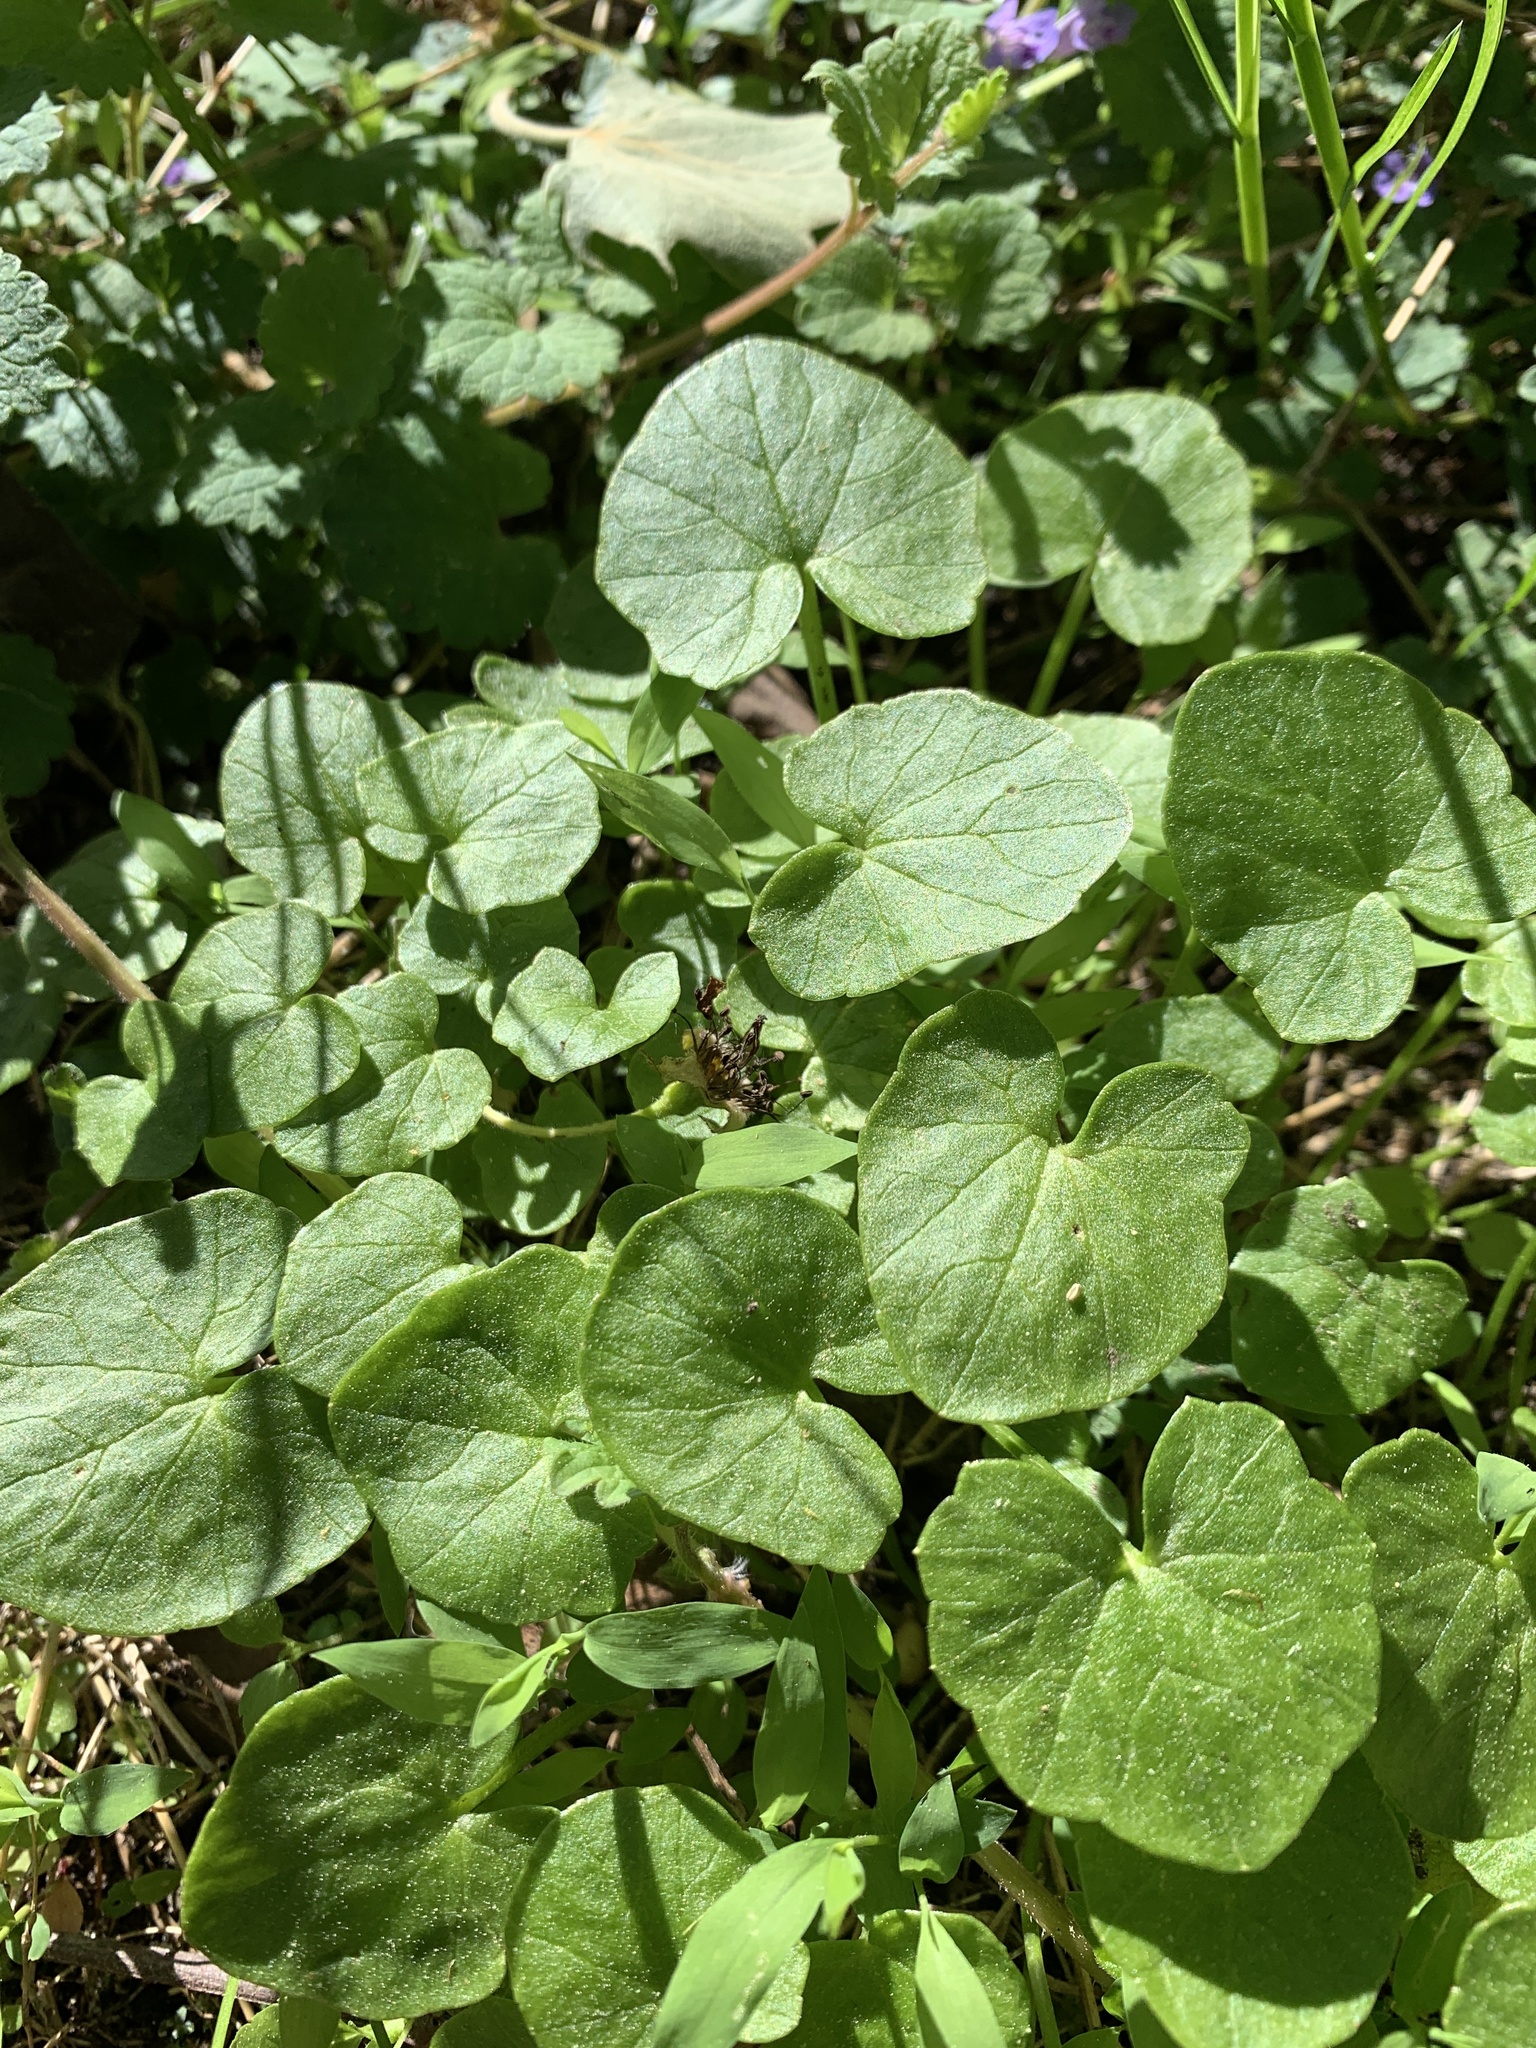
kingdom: Plantae
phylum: Tracheophyta
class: Magnoliopsida
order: Ranunculales
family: Ranunculaceae
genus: Ficaria
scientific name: Ficaria verna
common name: Lesser celandine
